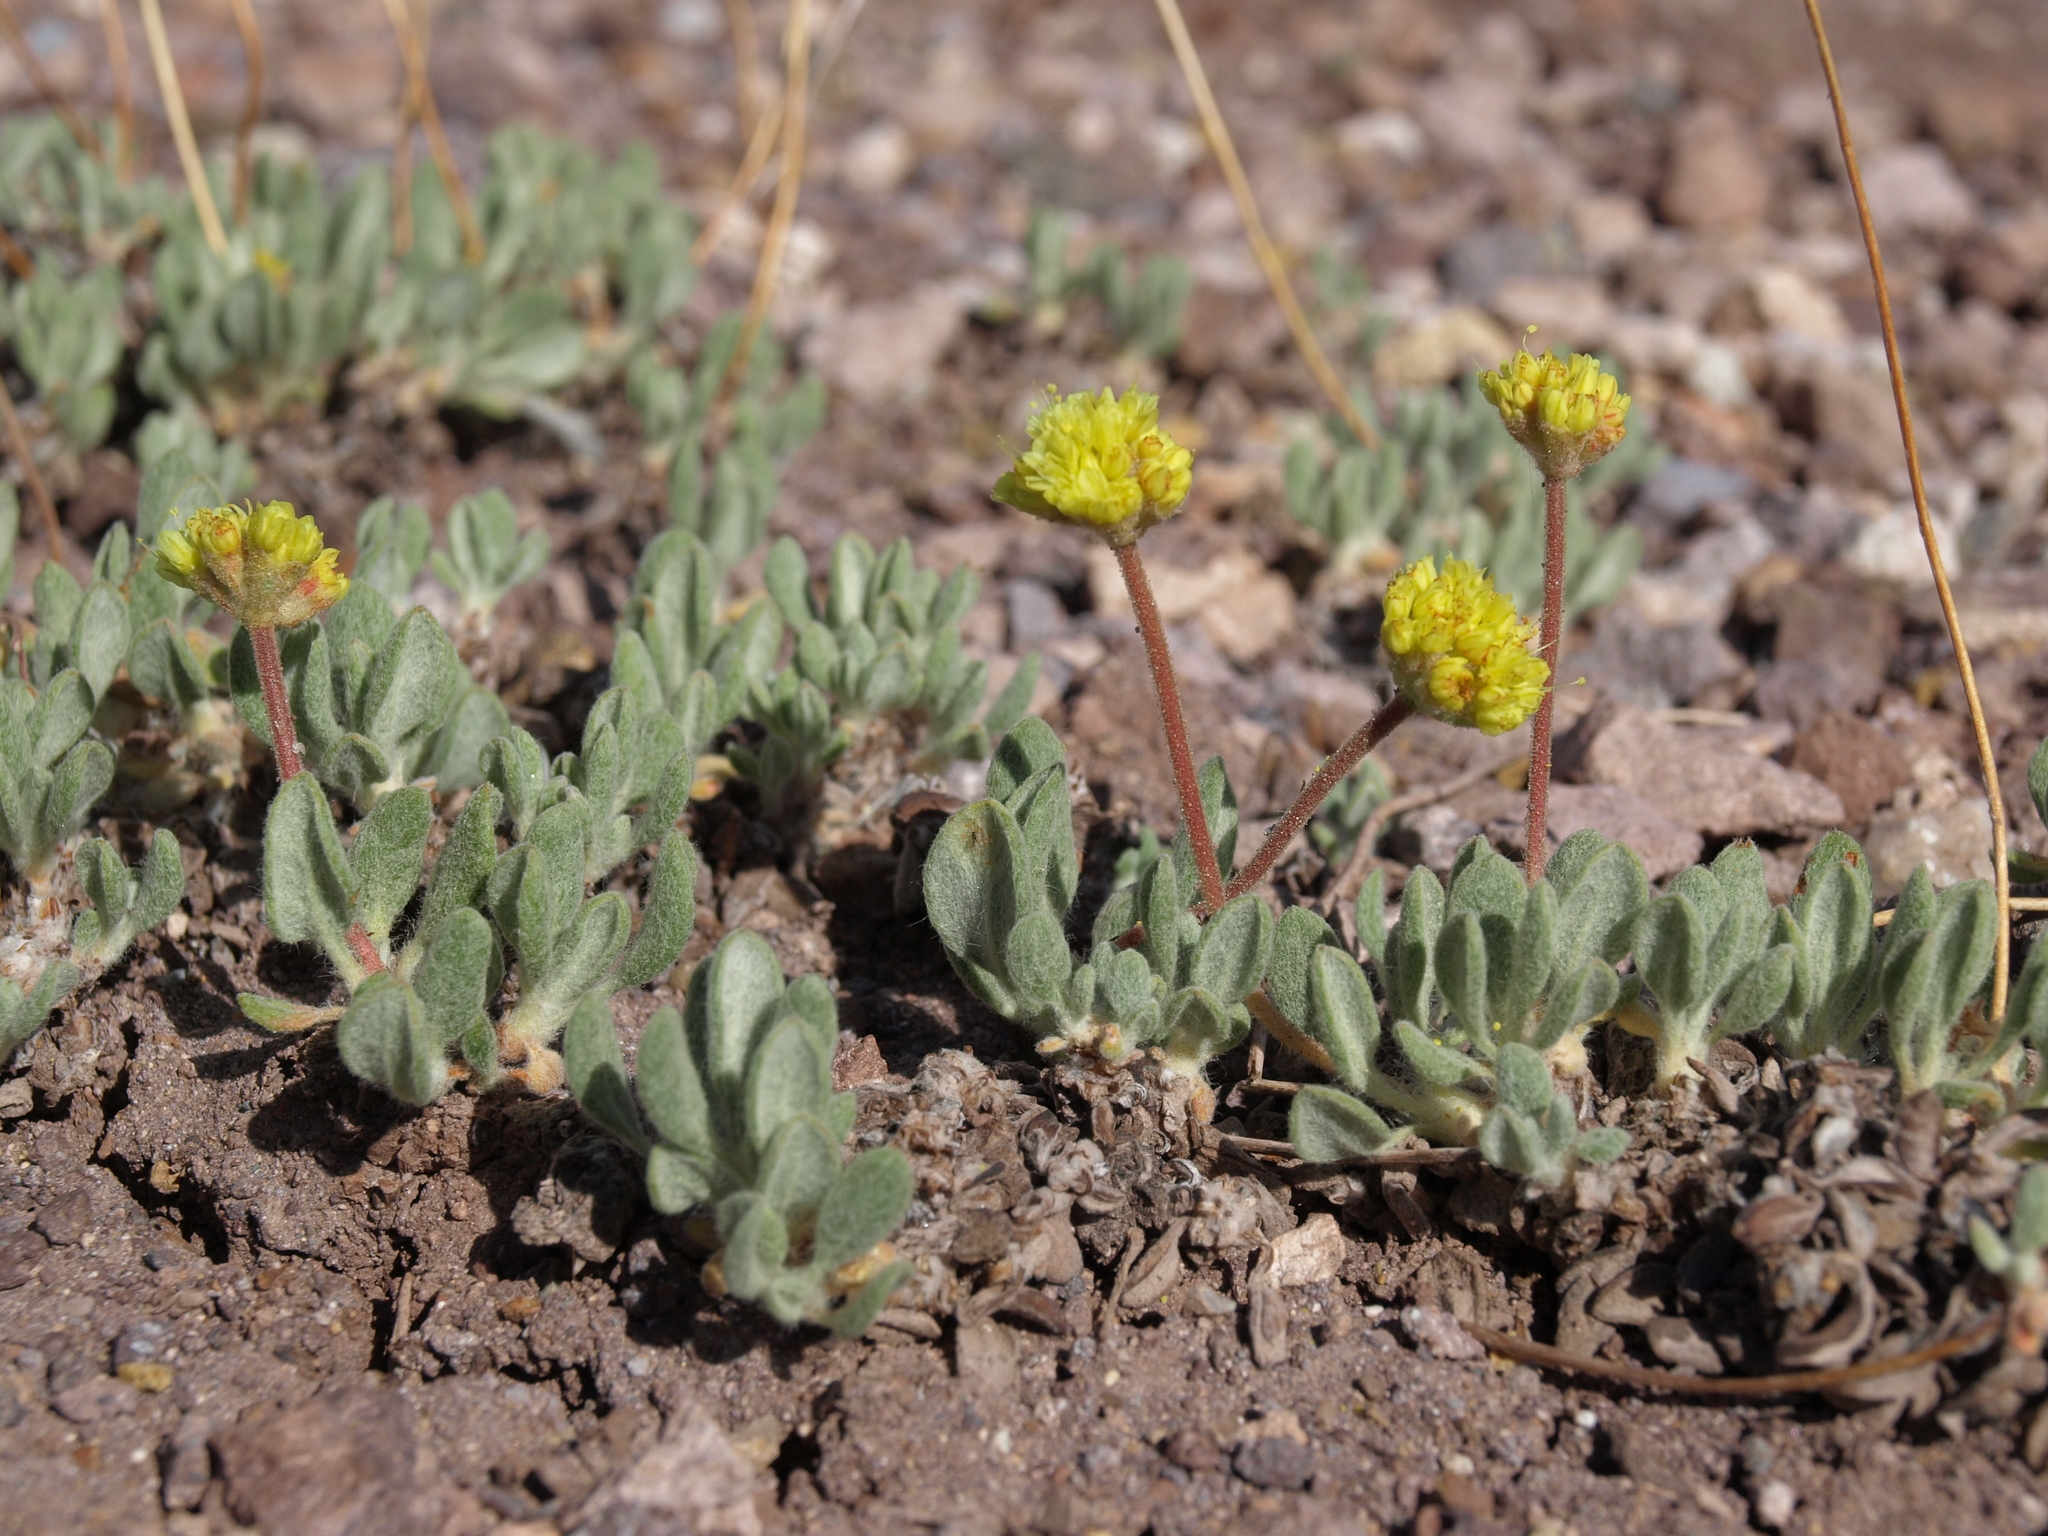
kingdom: Plantae
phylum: Tracheophyta
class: Magnoliopsida
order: Caryophyllales
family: Polygonaceae
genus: Eriogonum
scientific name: Eriogonum rosense
